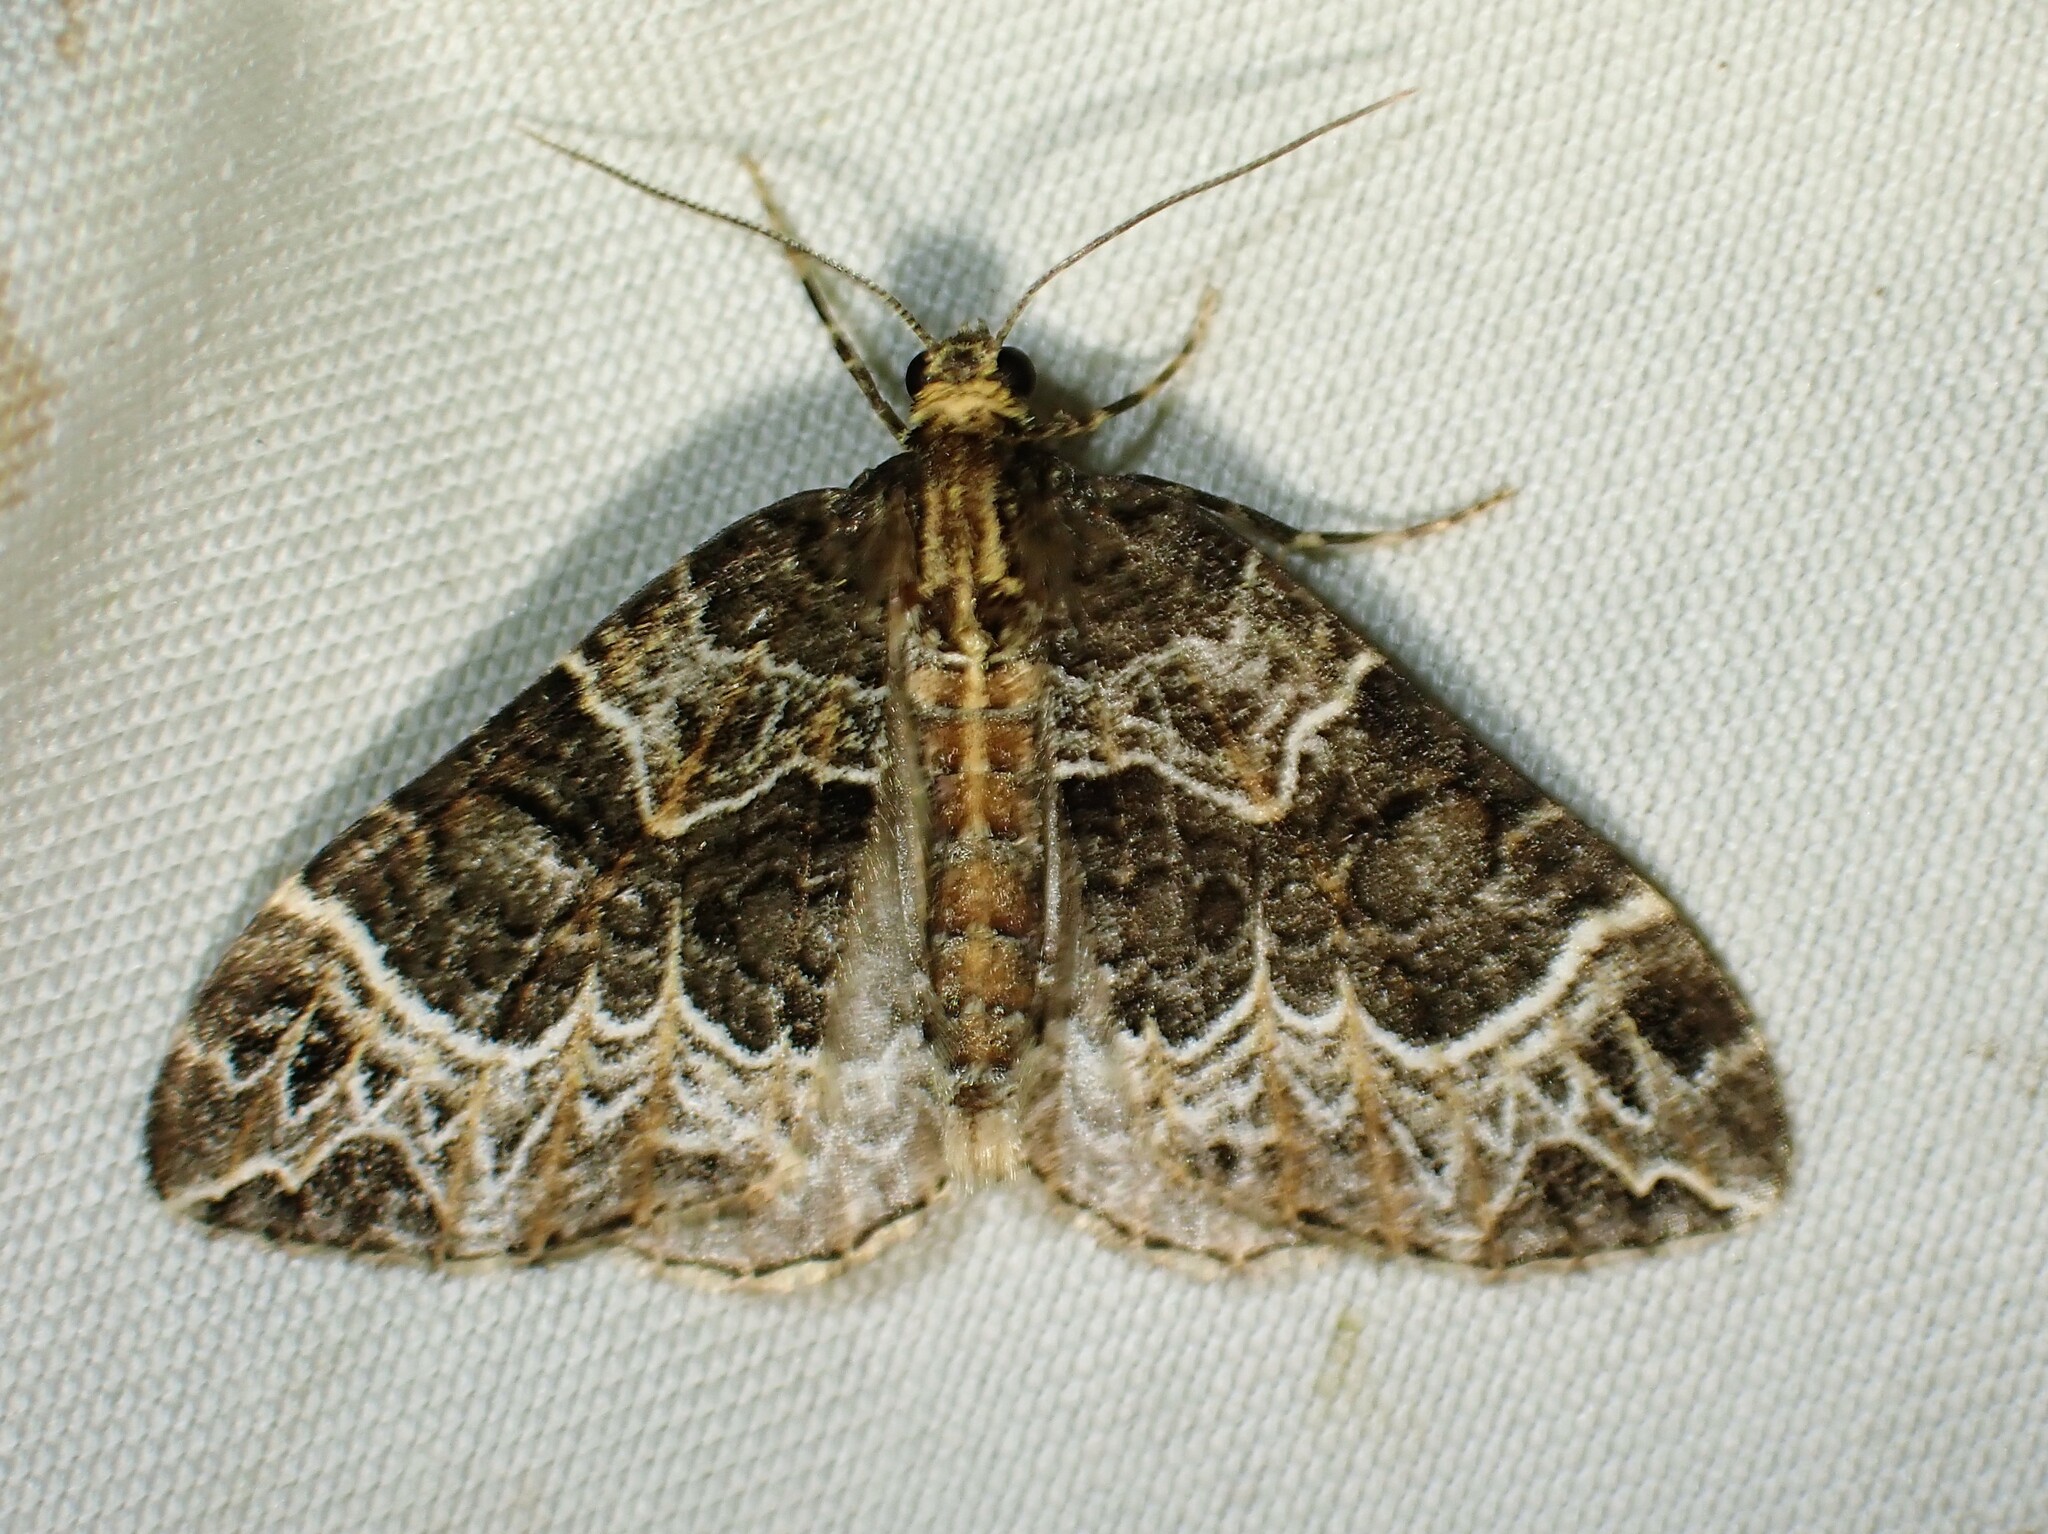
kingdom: Animalia
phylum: Arthropoda
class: Insecta
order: Lepidoptera
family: Geometridae
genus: Ecliptopera
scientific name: Ecliptopera silaceata
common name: Small phoenix
